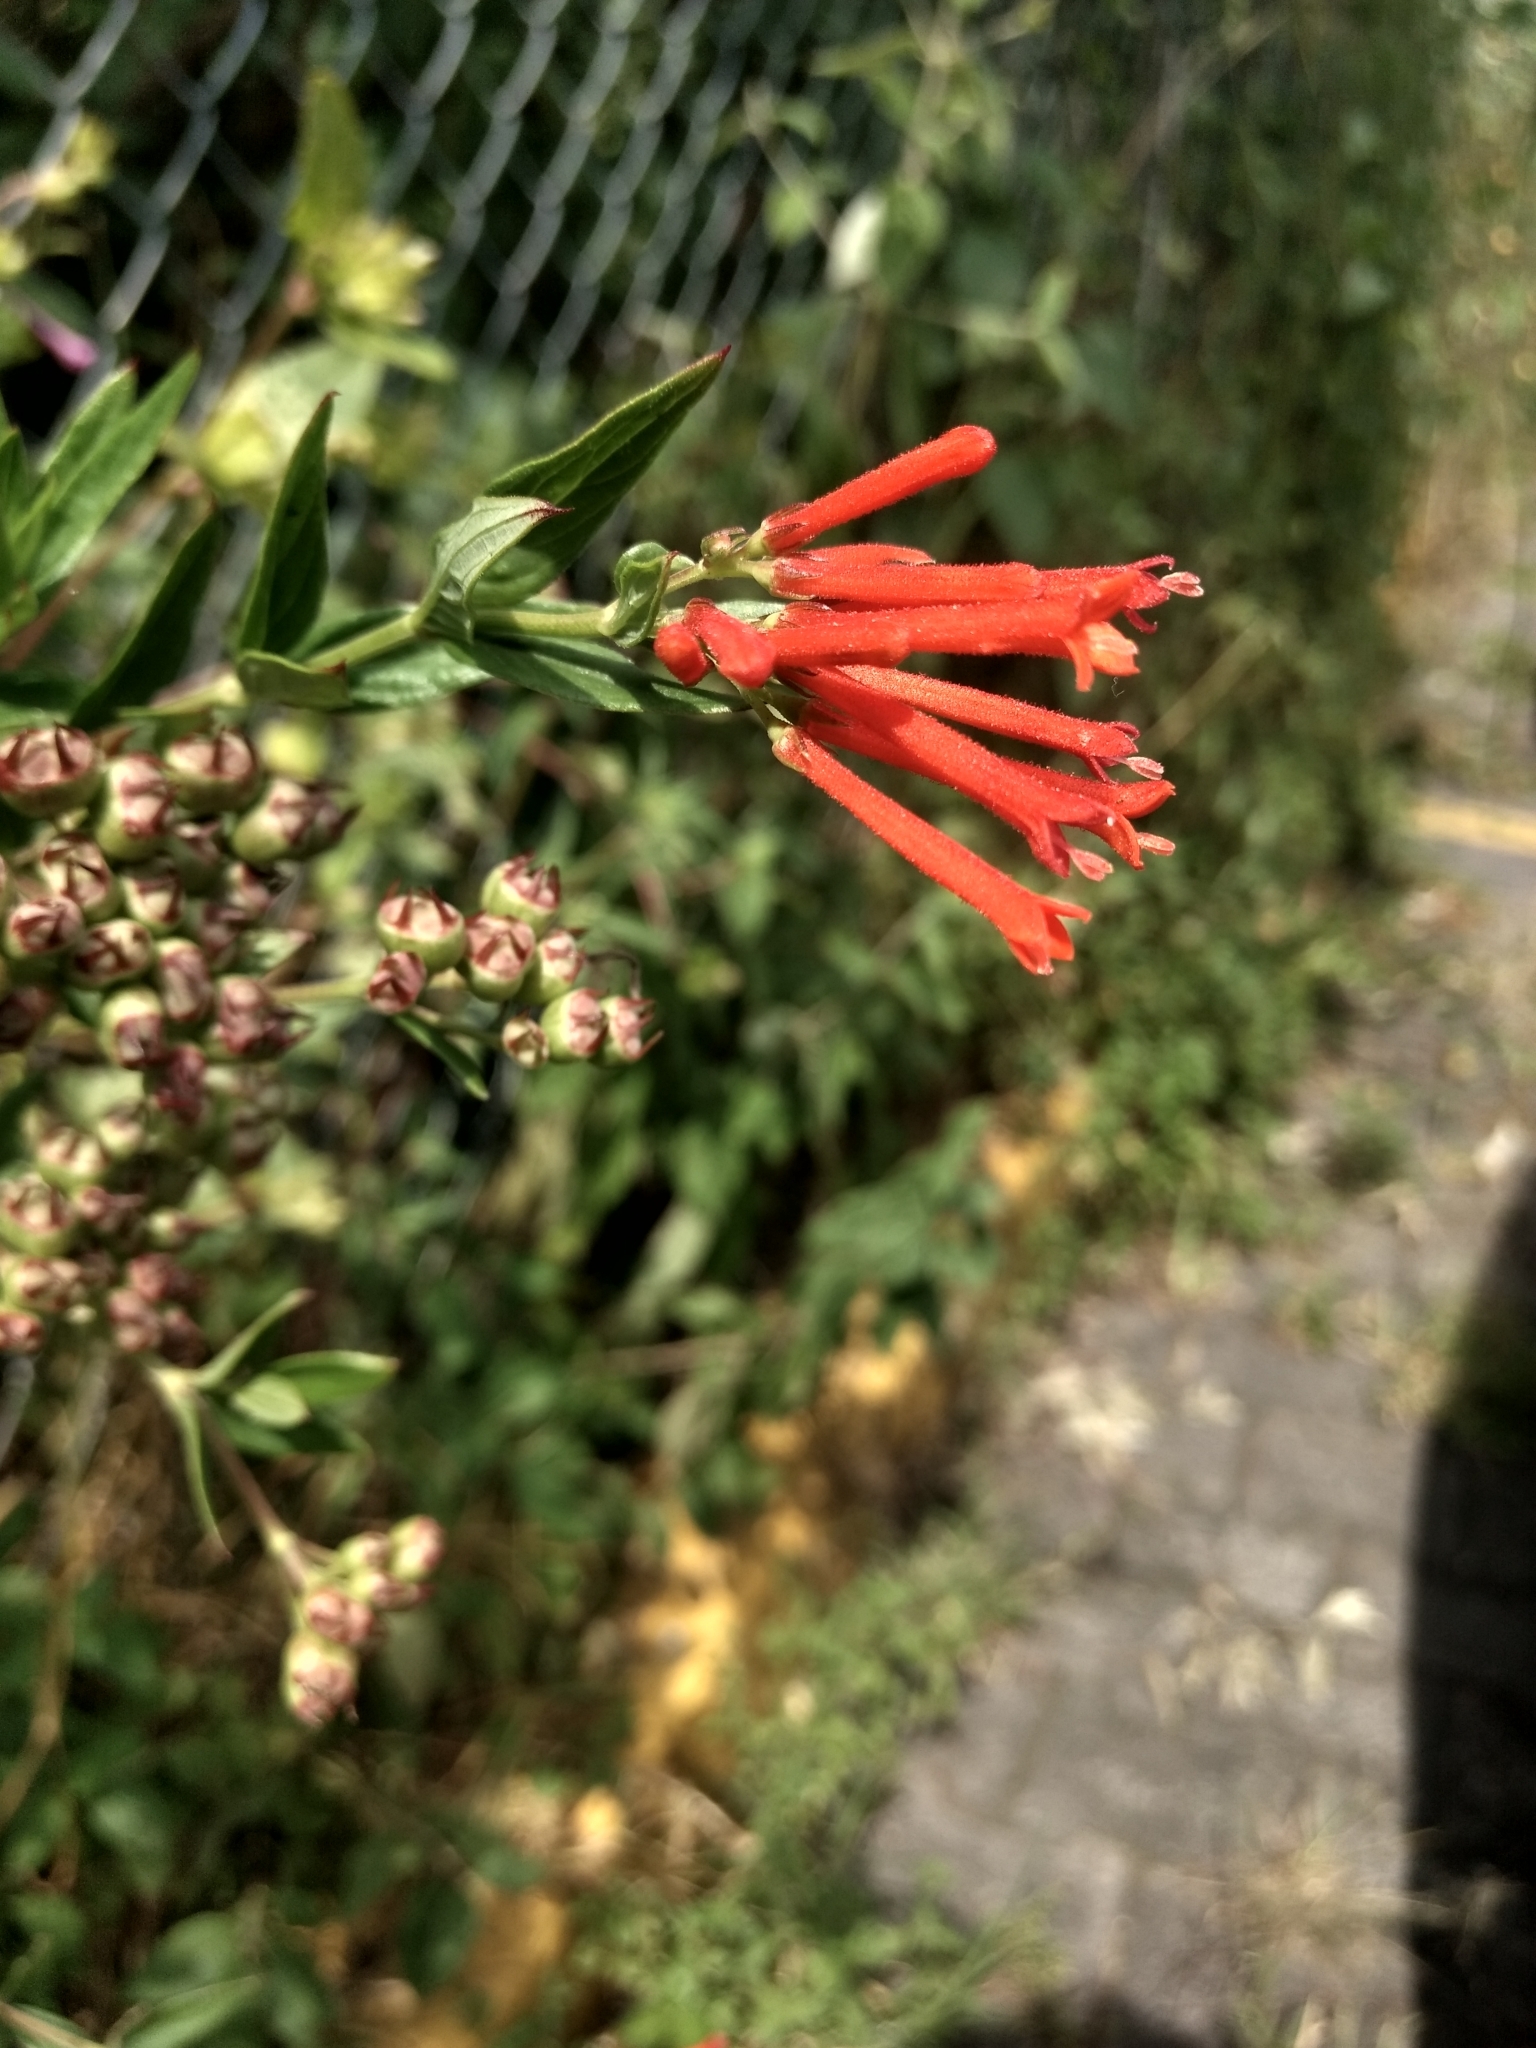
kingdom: Plantae
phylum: Tracheophyta
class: Magnoliopsida
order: Gentianales
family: Rubiaceae
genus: Bouvardia
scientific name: Bouvardia ternifolia
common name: Scarlet bouvardia
